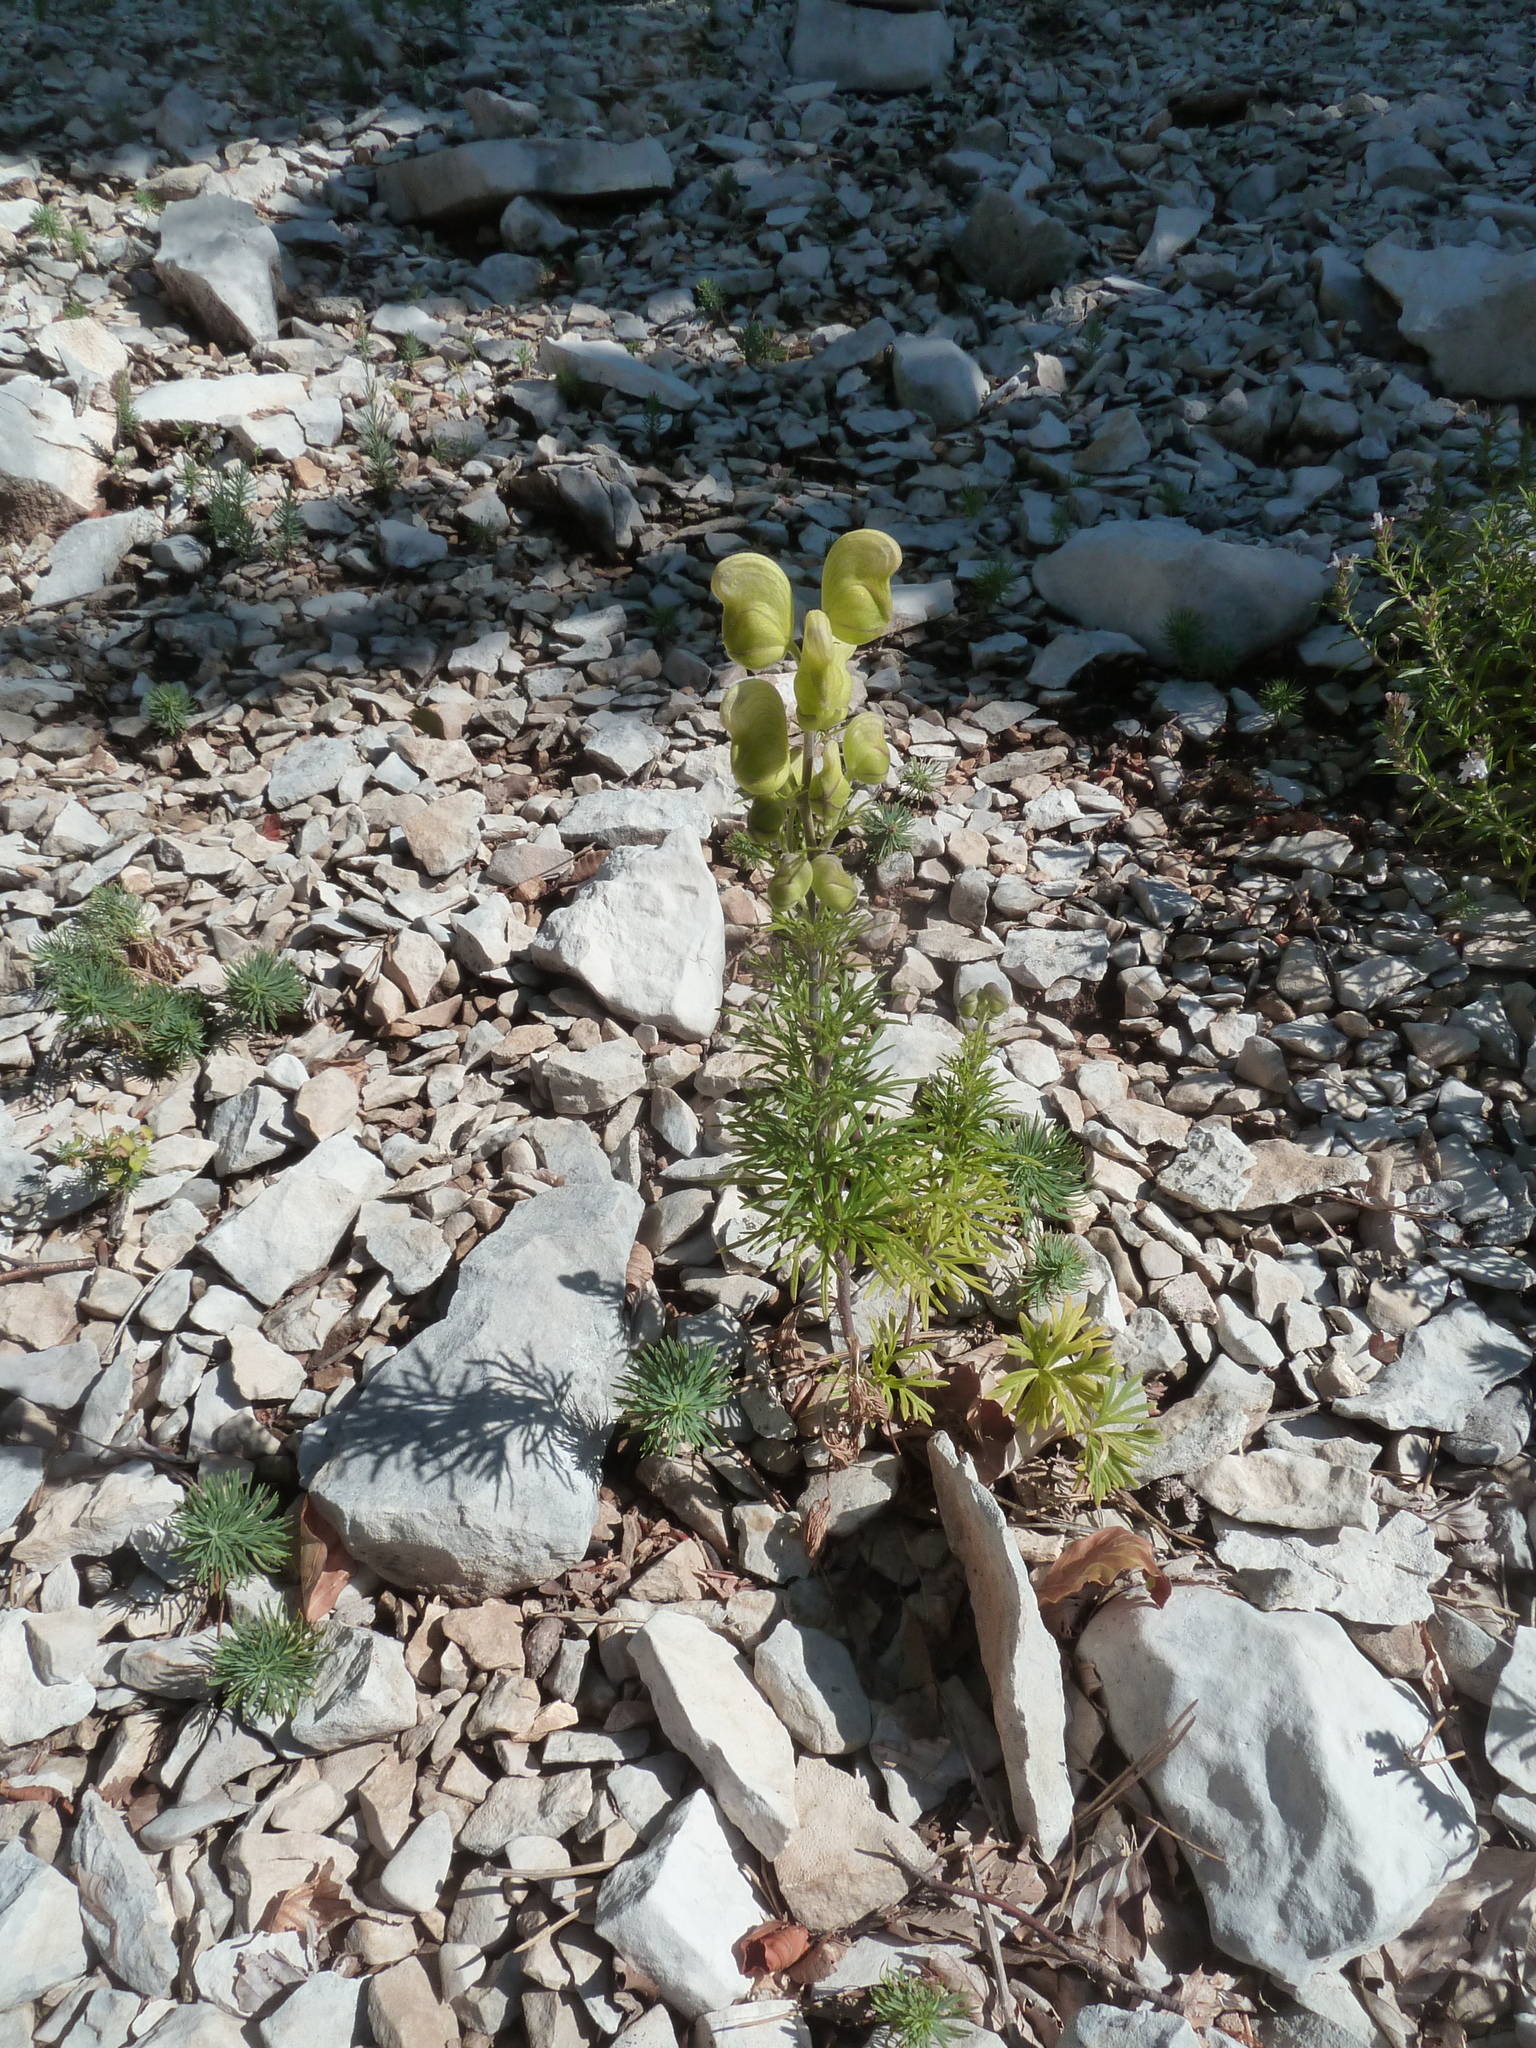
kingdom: Plantae
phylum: Tracheophyta
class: Magnoliopsida
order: Ranunculales
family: Ranunculaceae
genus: Aconitum
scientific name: Aconitum anthora
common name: Yellow monkshood
